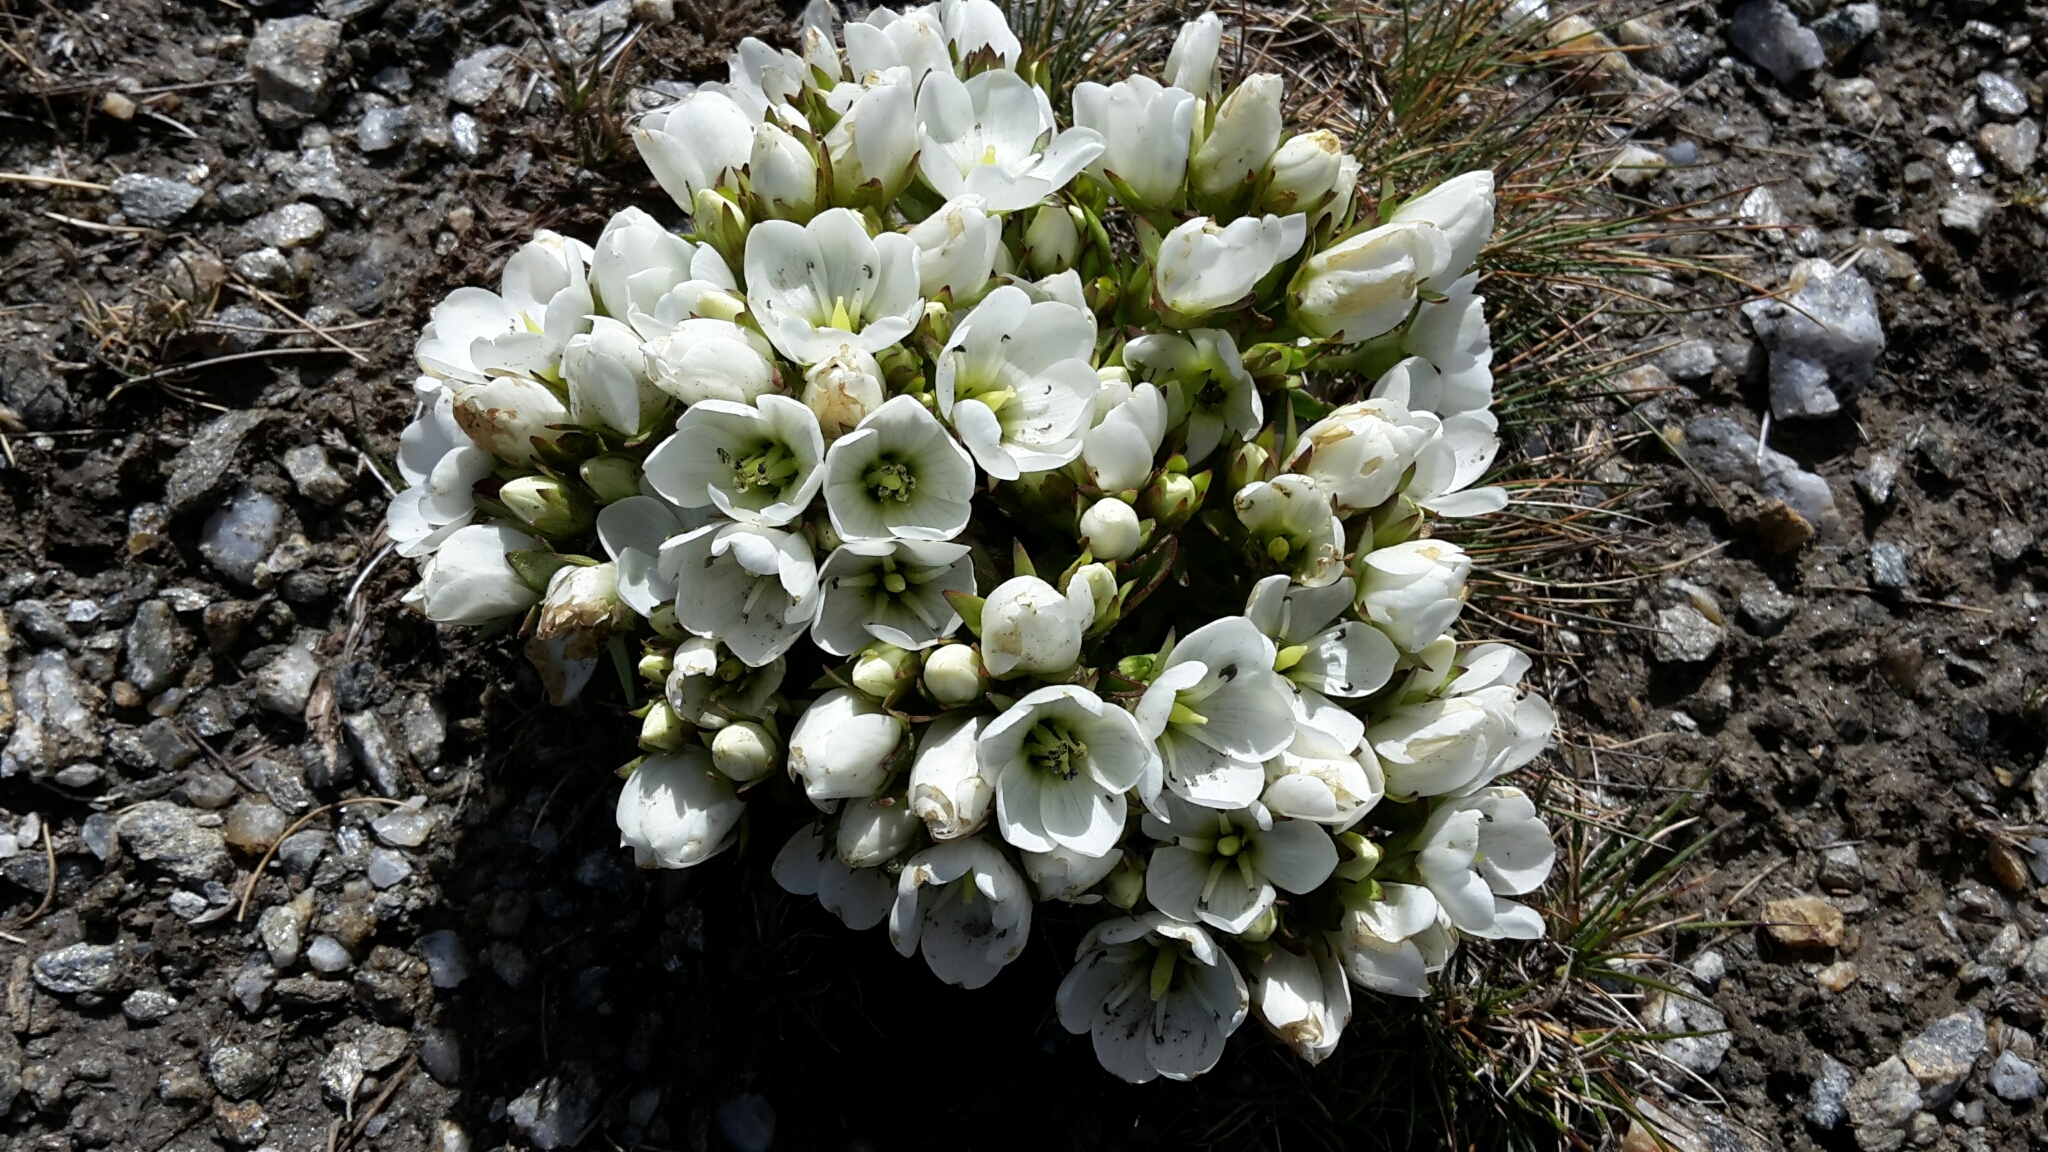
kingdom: Plantae
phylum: Tracheophyta
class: Magnoliopsida
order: Gentianales
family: Gentianaceae
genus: Gentianella
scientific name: Gentianella divisa
